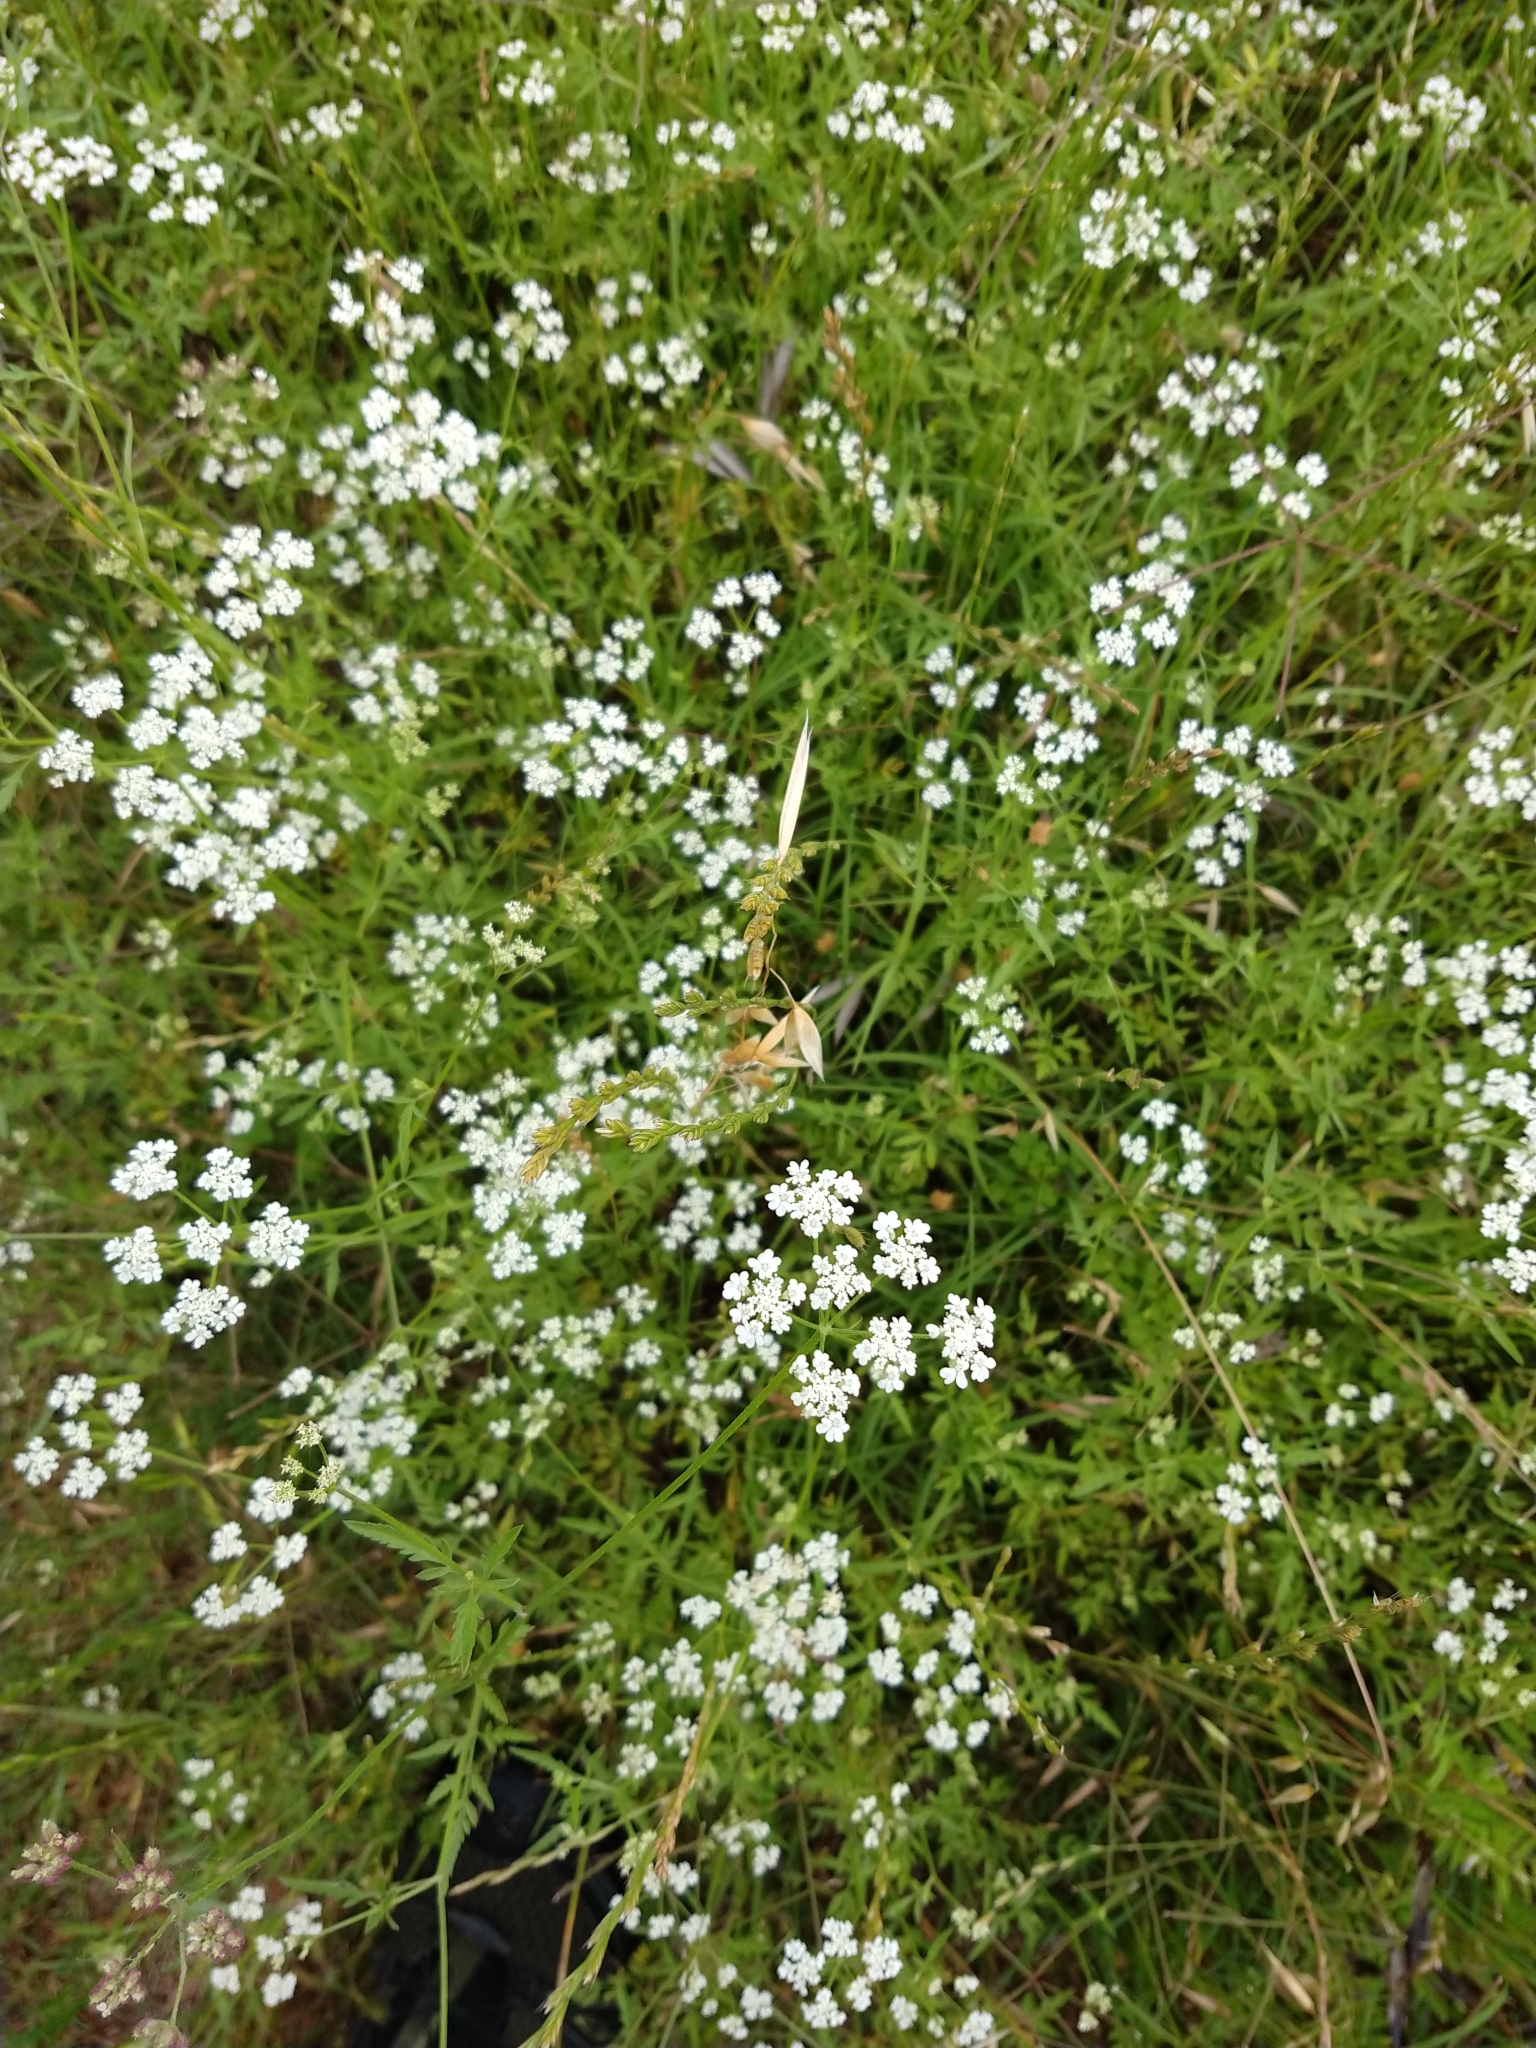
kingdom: Plantae
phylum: Tracheophyta
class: Magnoliopsida
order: Apiales
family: Apiaceae
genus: Torilis
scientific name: Torilis arvensis
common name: Spreading hedge-parsley
